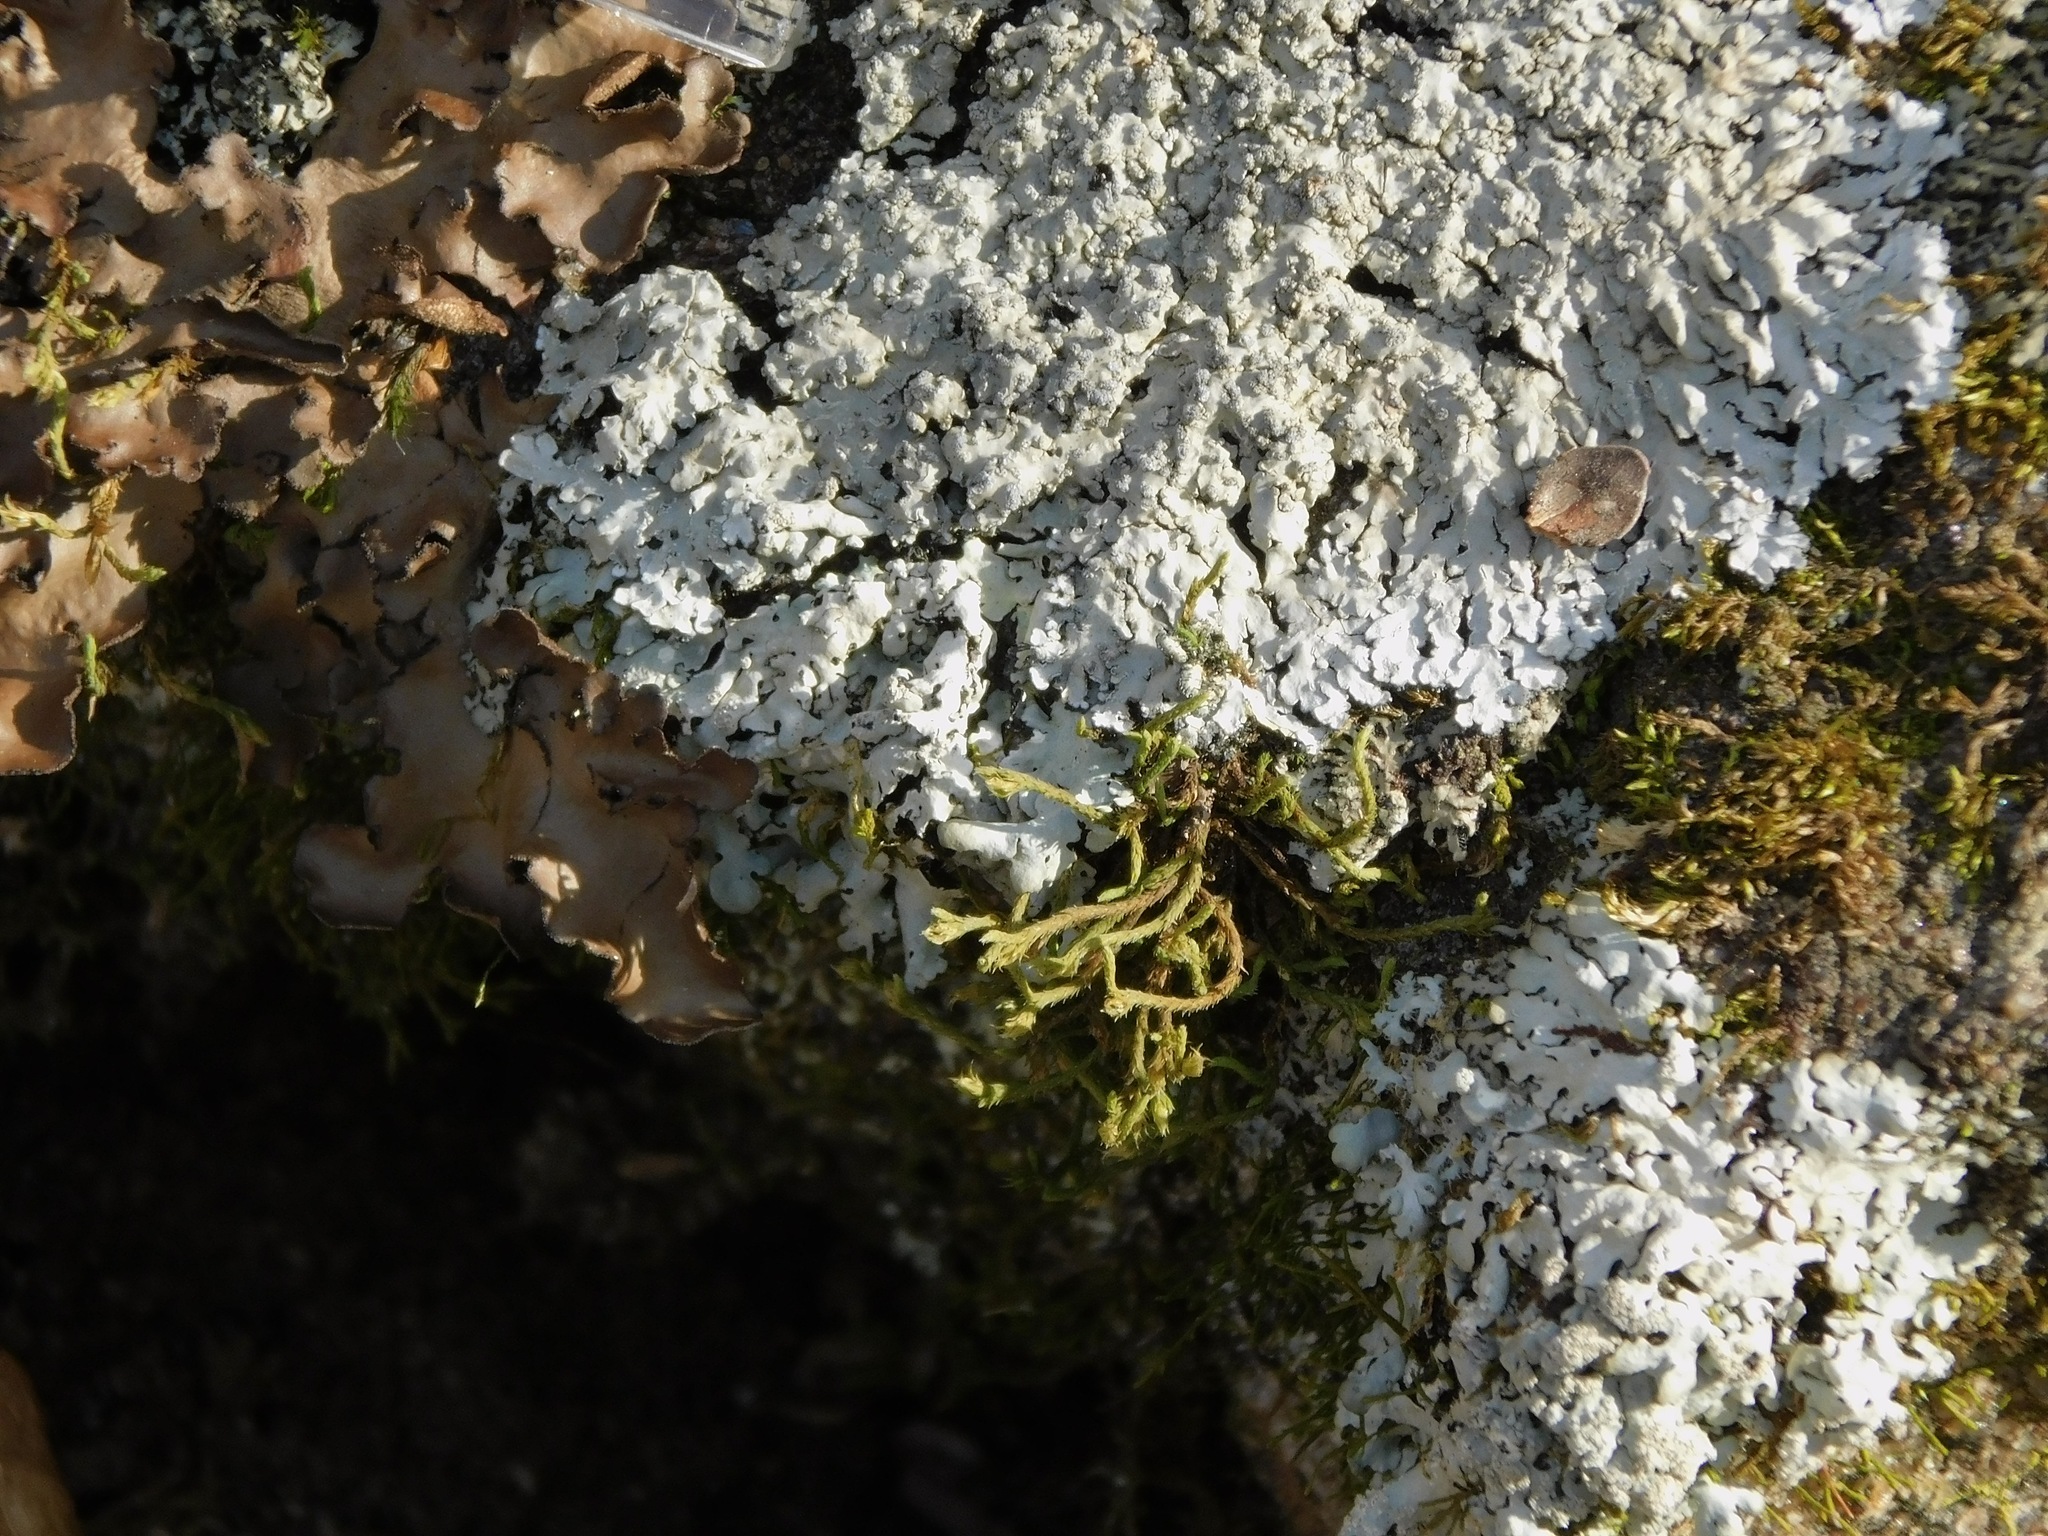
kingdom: Fungi
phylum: Ascomycota
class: Lecanoromycetes
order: Caliciales
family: Caliciaceae
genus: Pyxine
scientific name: Pyxine sorediata
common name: Mustard lichen
